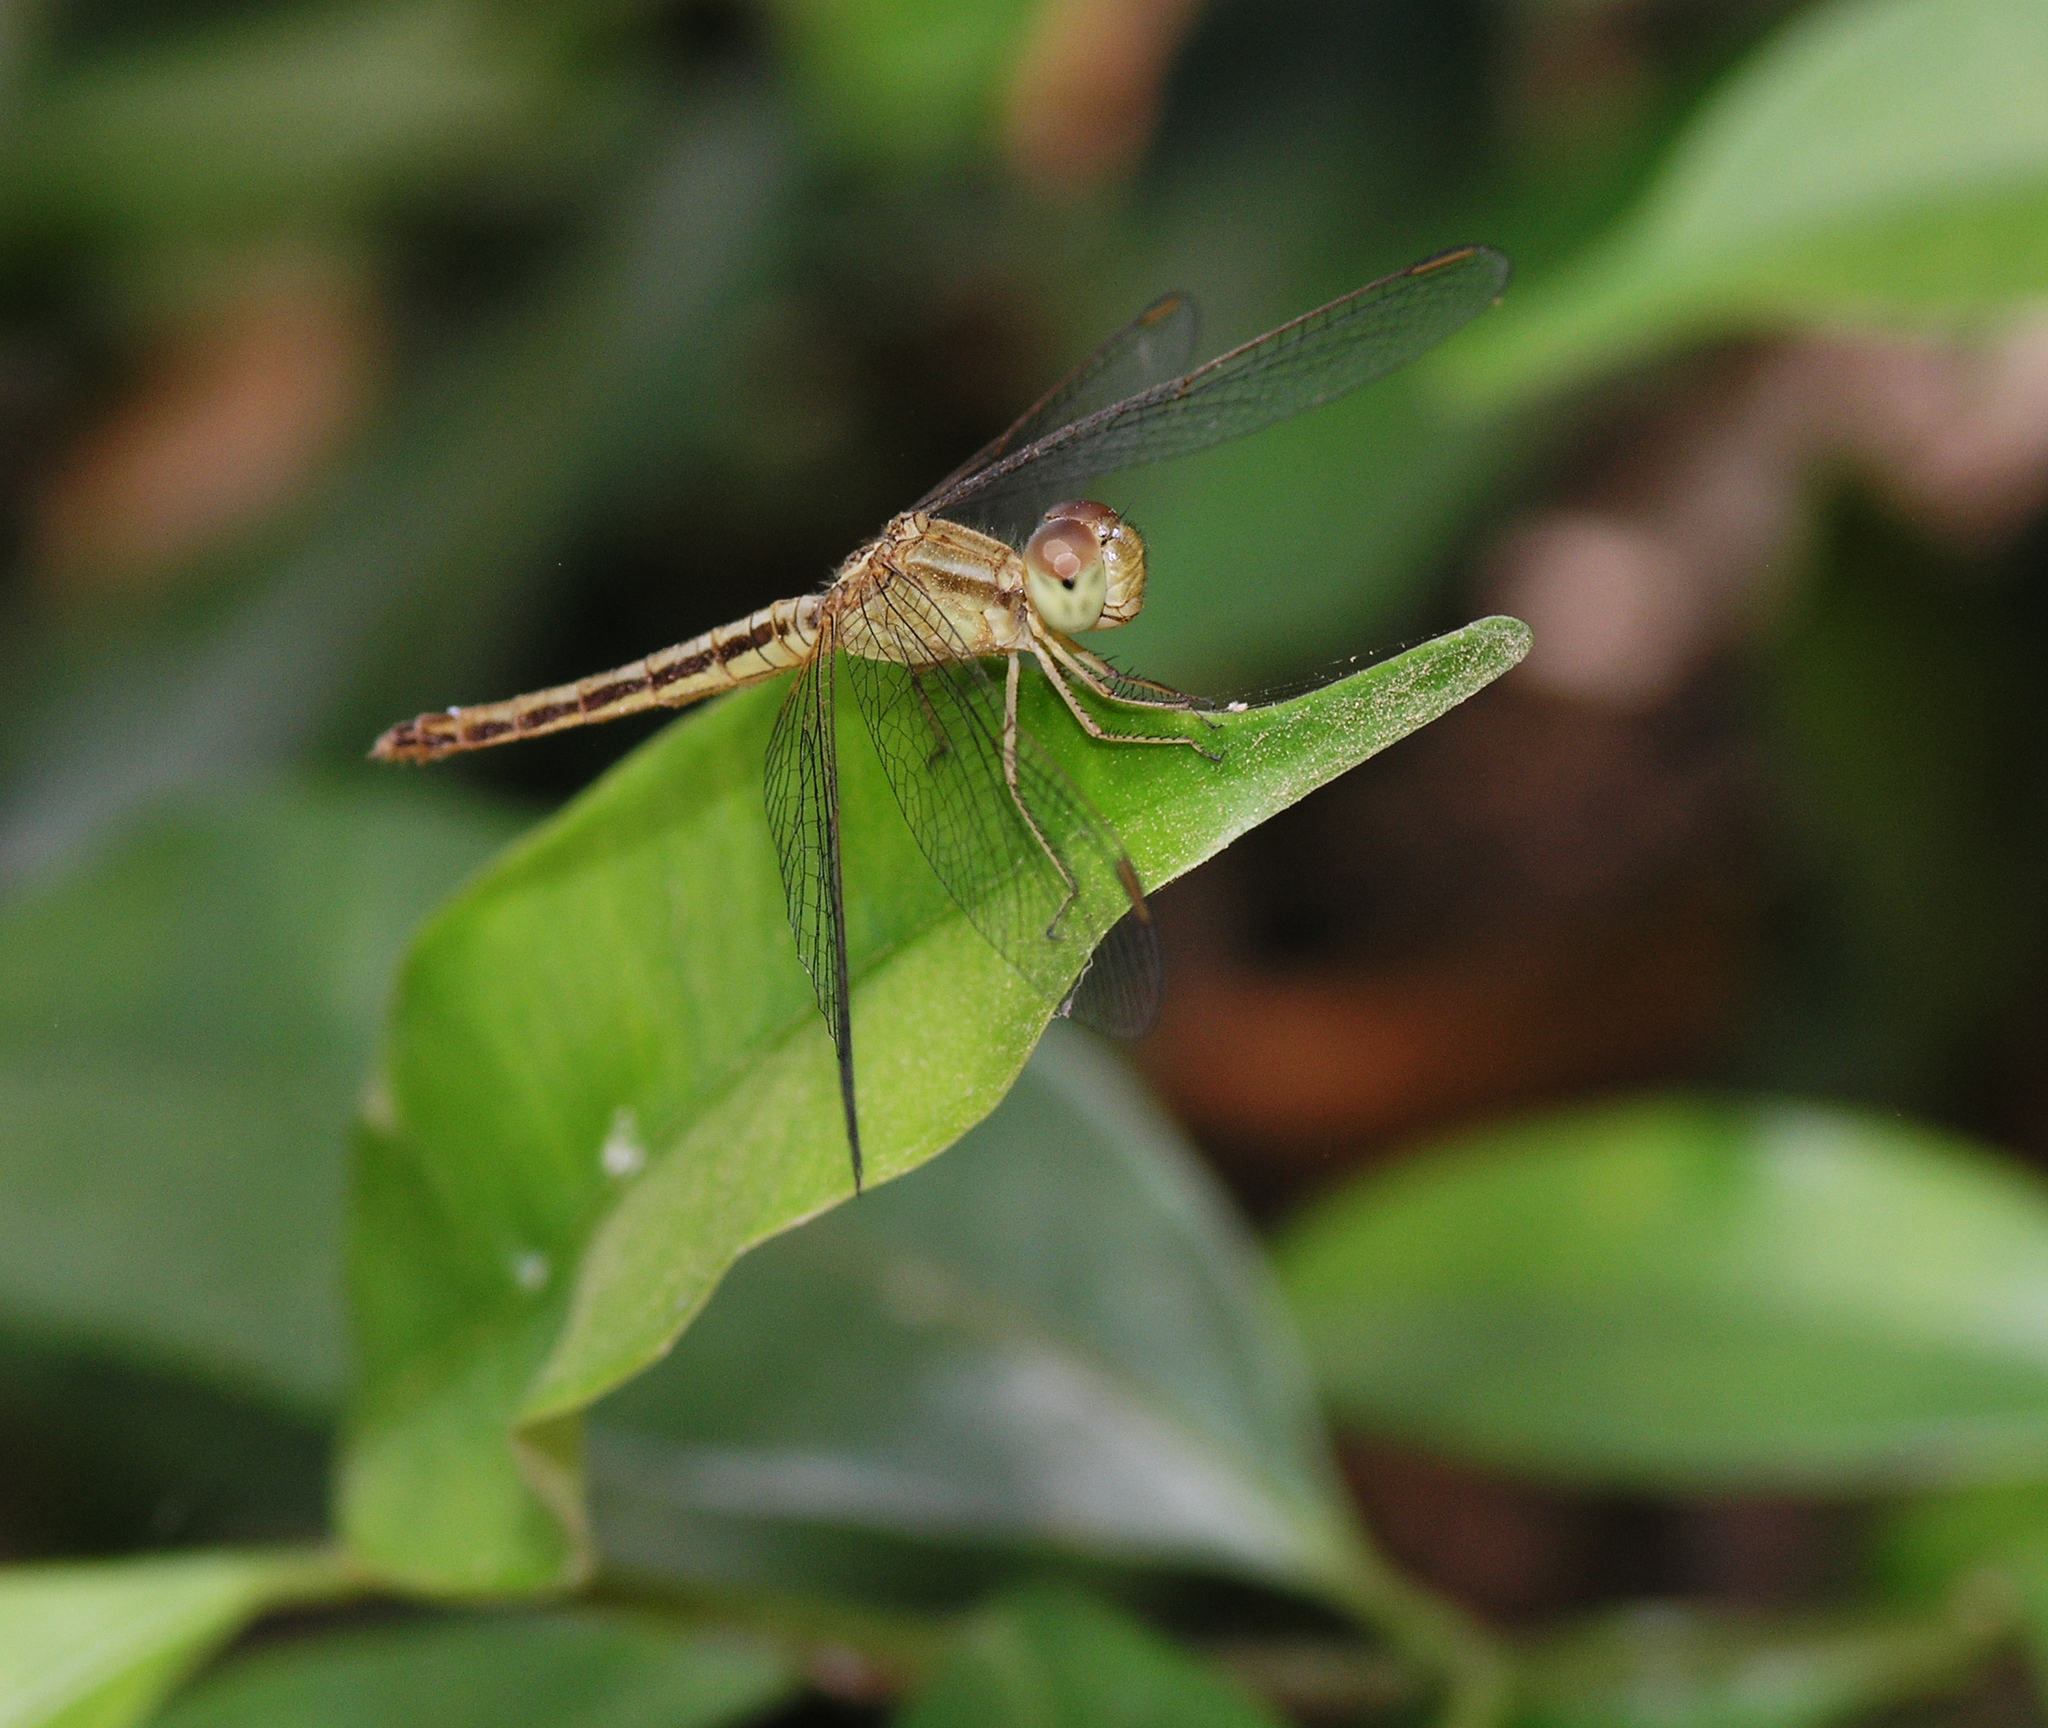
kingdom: Animalia
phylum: Arthropoda
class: Insecta
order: Odonata
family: Libellulidae
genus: Neurothemis
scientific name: Neurothemis intermedia
